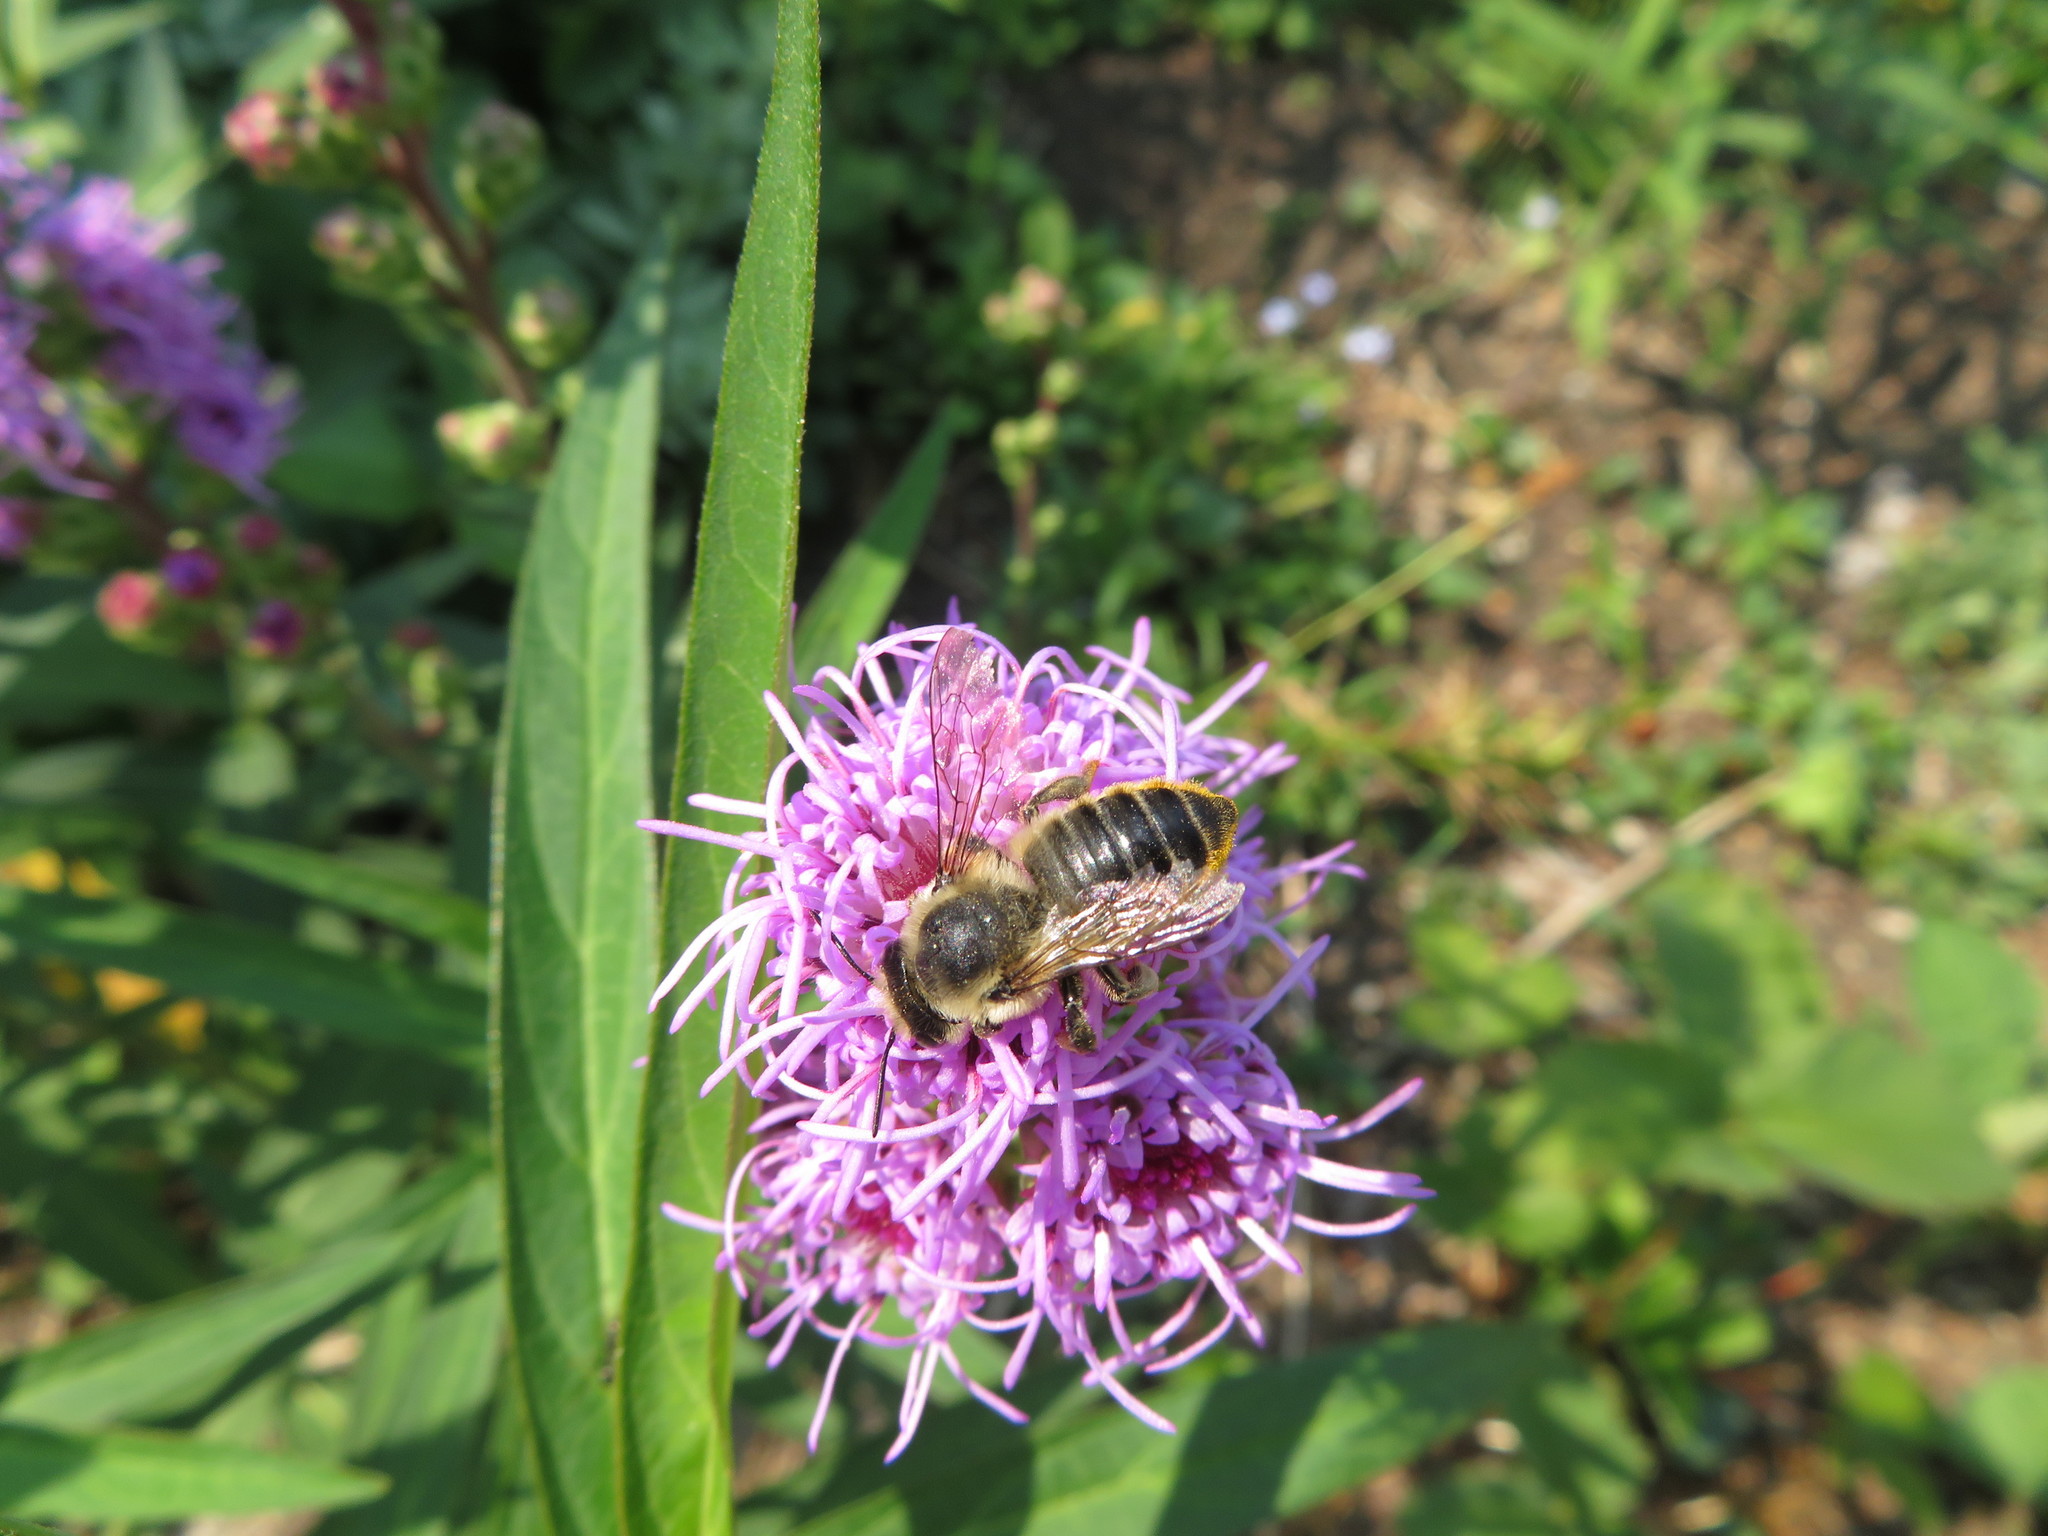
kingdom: Animalia
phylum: Arthropoda
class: Insecta
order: Hymenoptera
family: Megachilidae
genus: Megachile
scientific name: Megachile perihirta
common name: Western leafcutter
